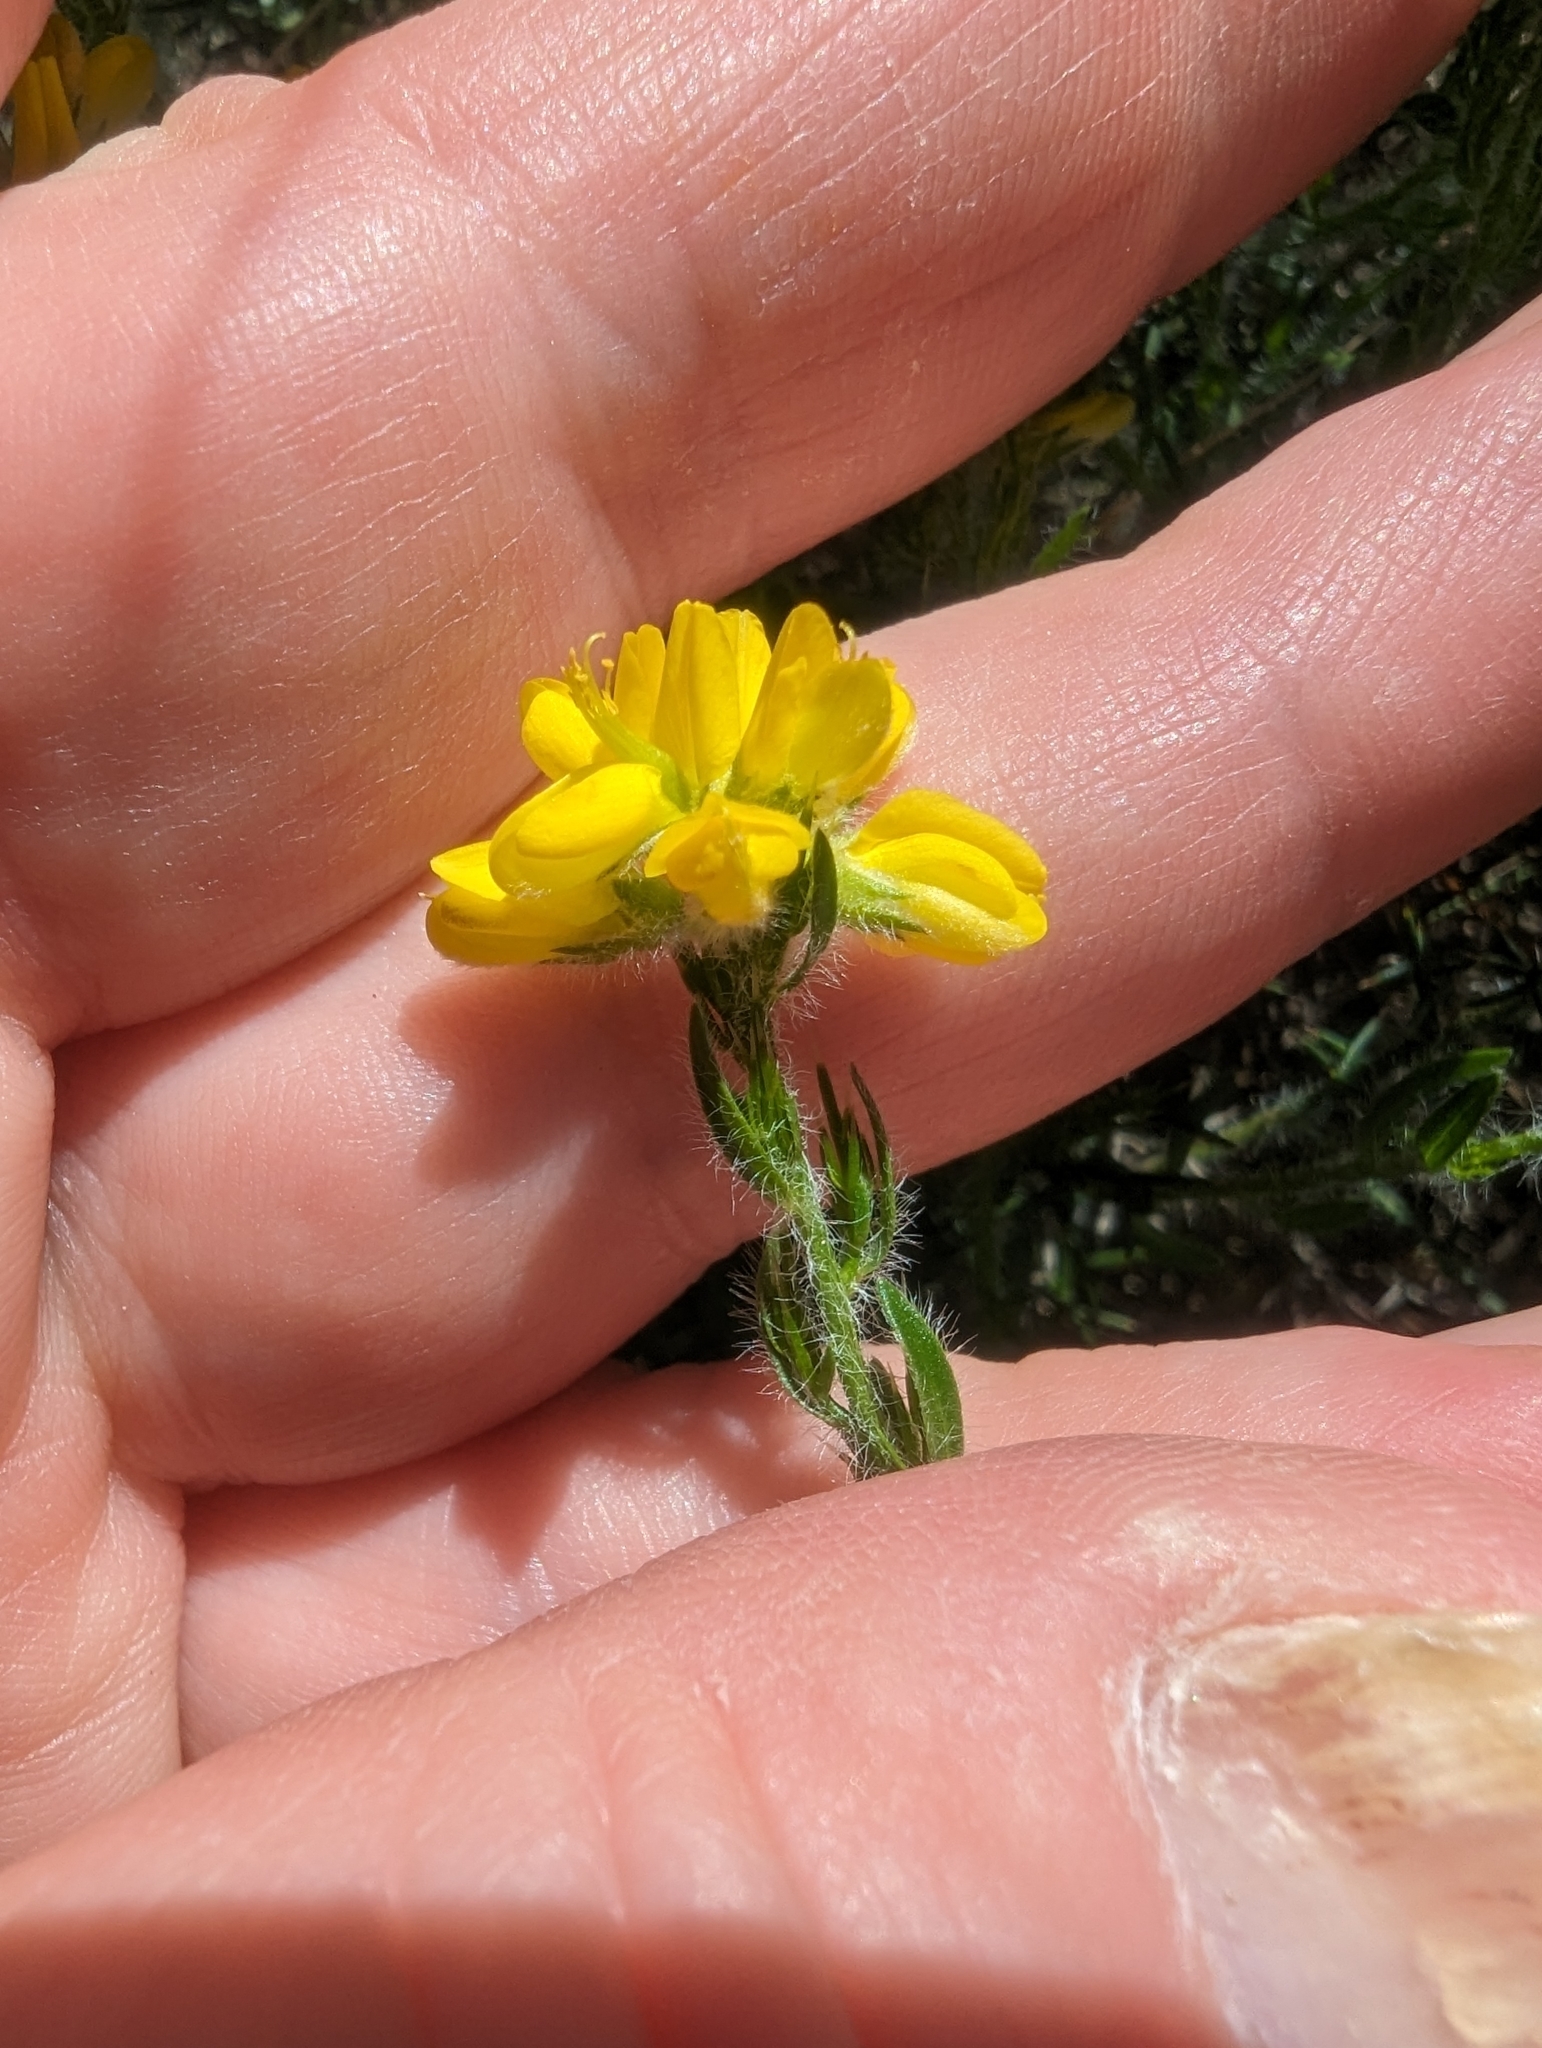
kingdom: Plantae
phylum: Tracheophyta
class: Magnoliopsida
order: Fabales
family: Fabaceae
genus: Genista
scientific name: Genista hispanica
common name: Spanish gorse
